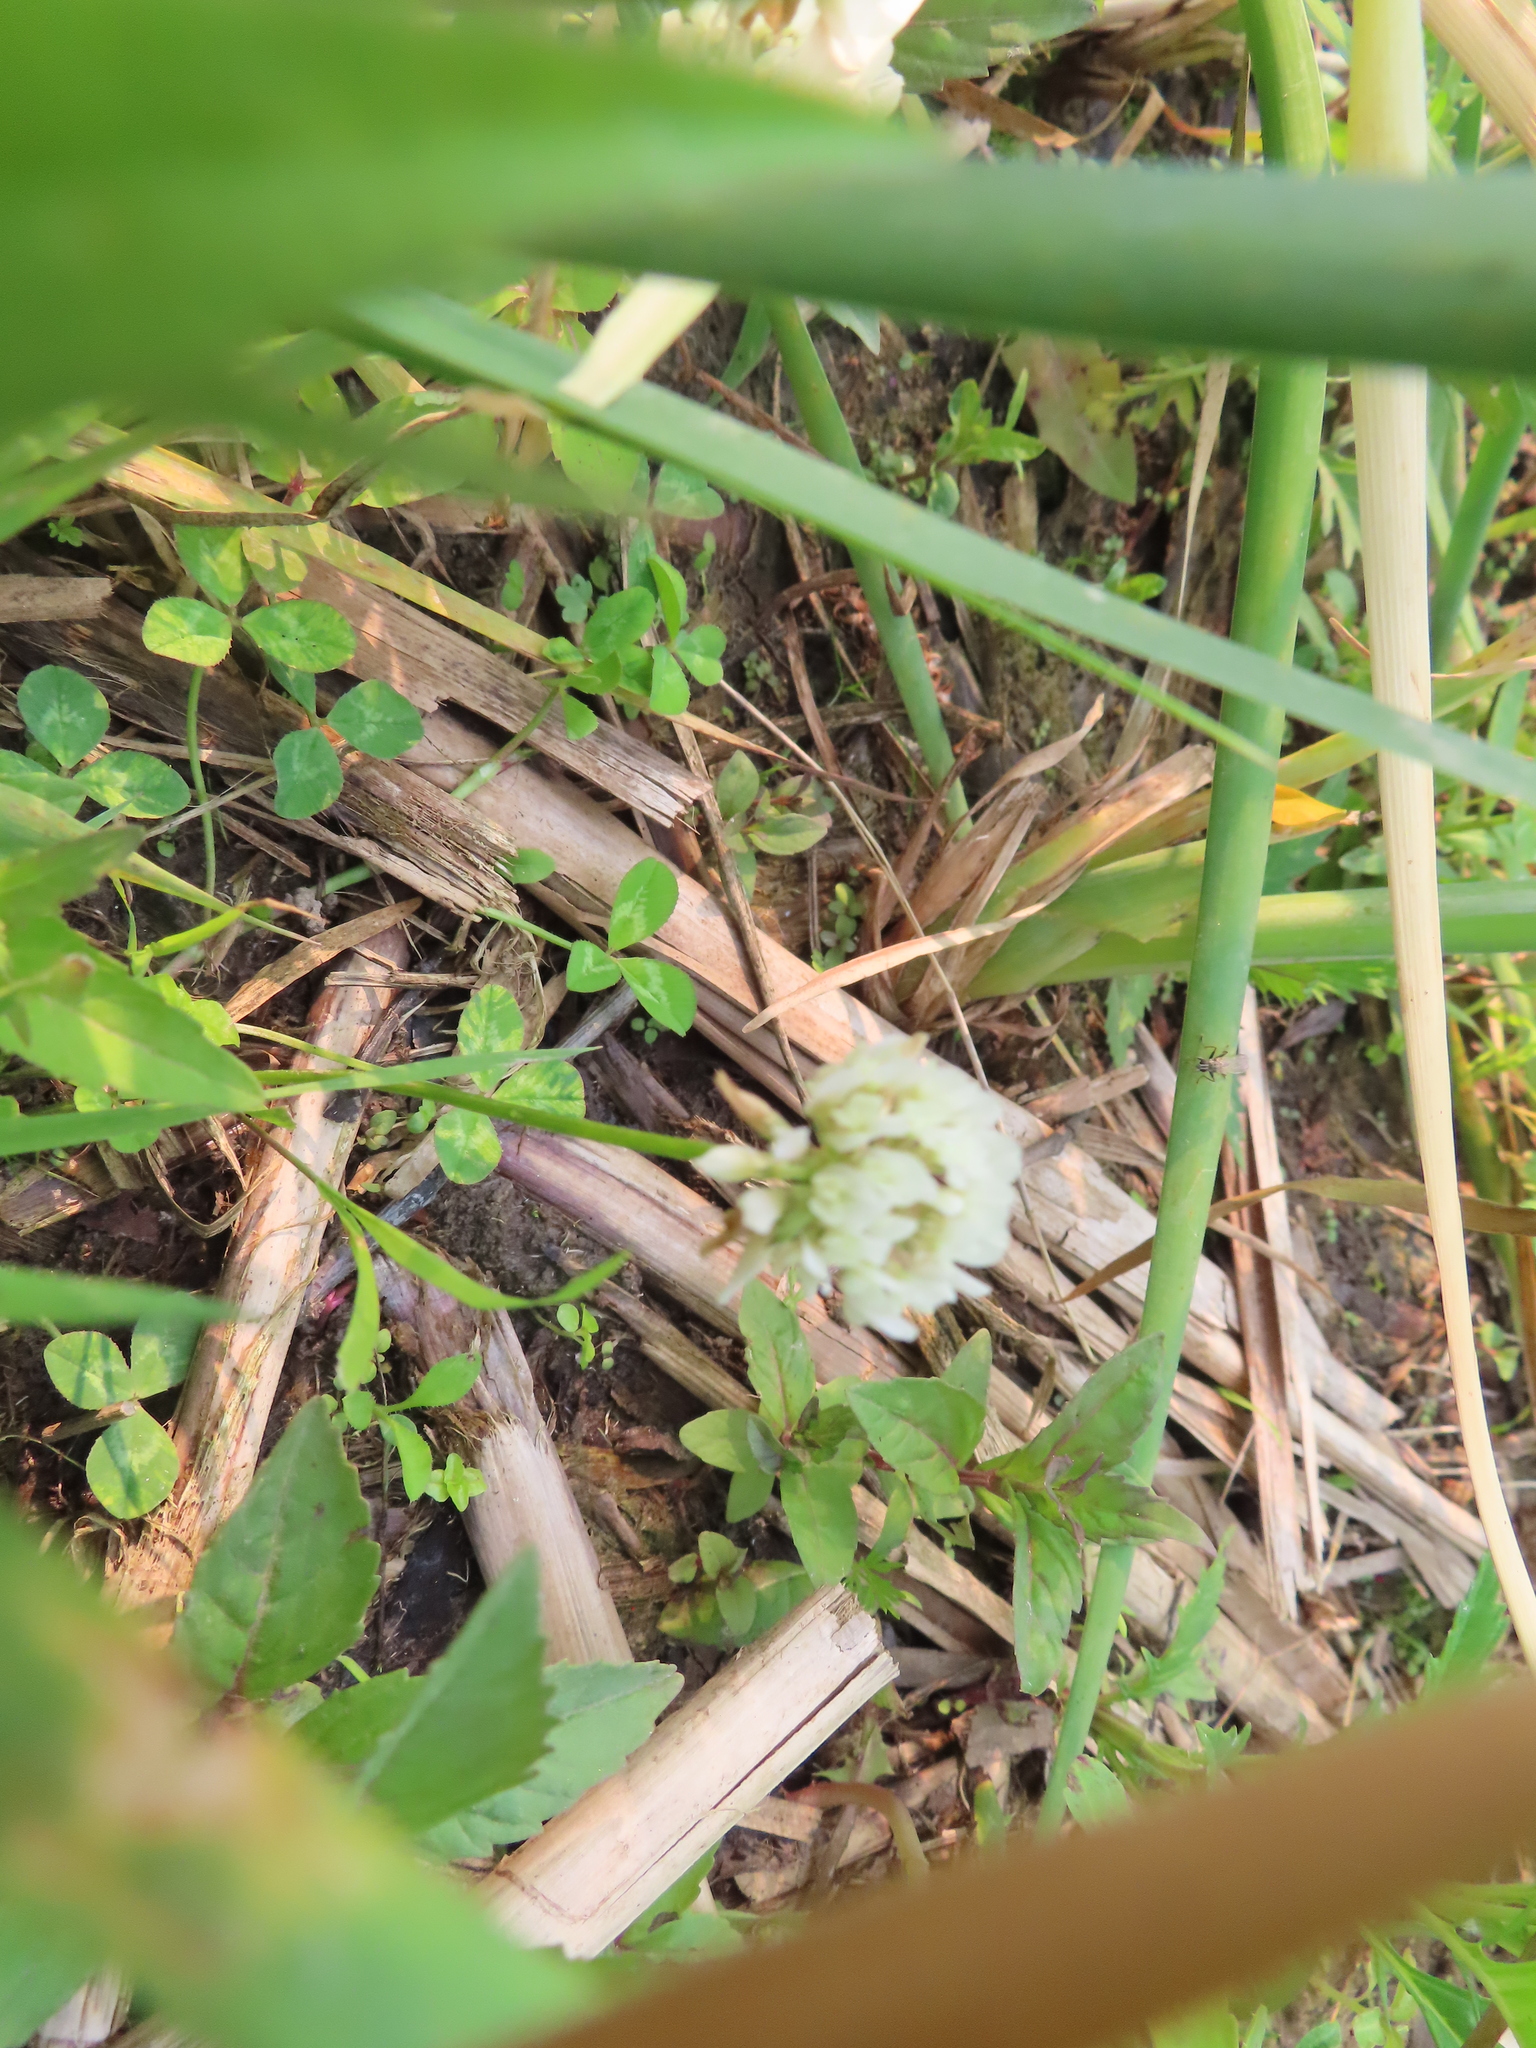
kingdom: Plantae
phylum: Tracheophyta
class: Magnoliopsida
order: Fabales
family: Fabaceae
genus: Trifolium
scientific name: Trifolium repens
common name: White clover
